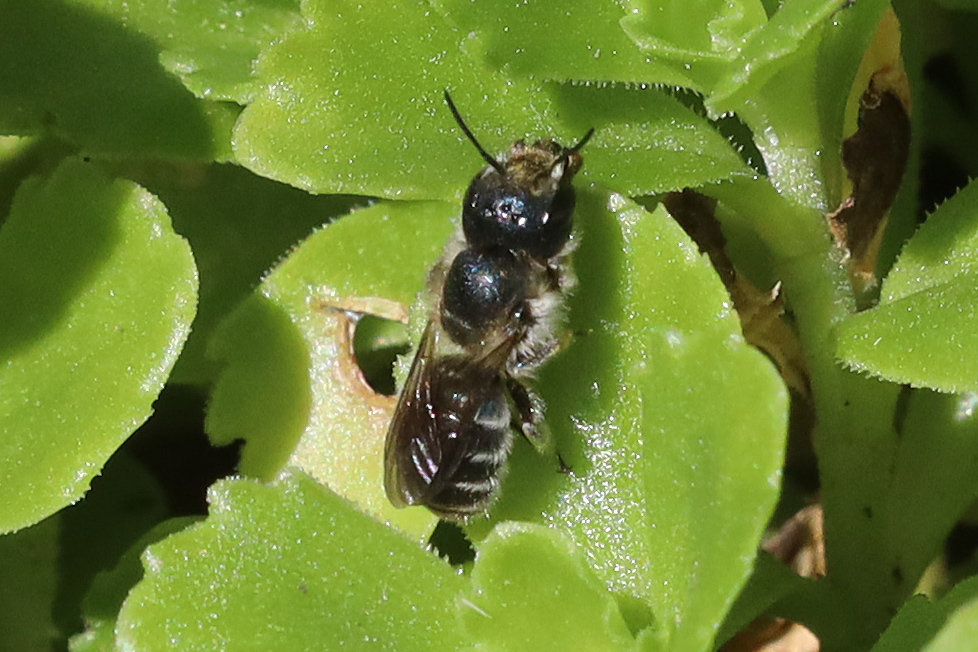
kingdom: Animalia
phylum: Arthropoda
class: Insecta
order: Hymenoptera
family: Megachilidae
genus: Osmia
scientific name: Osmia caerulescens
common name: Blue mason bee
